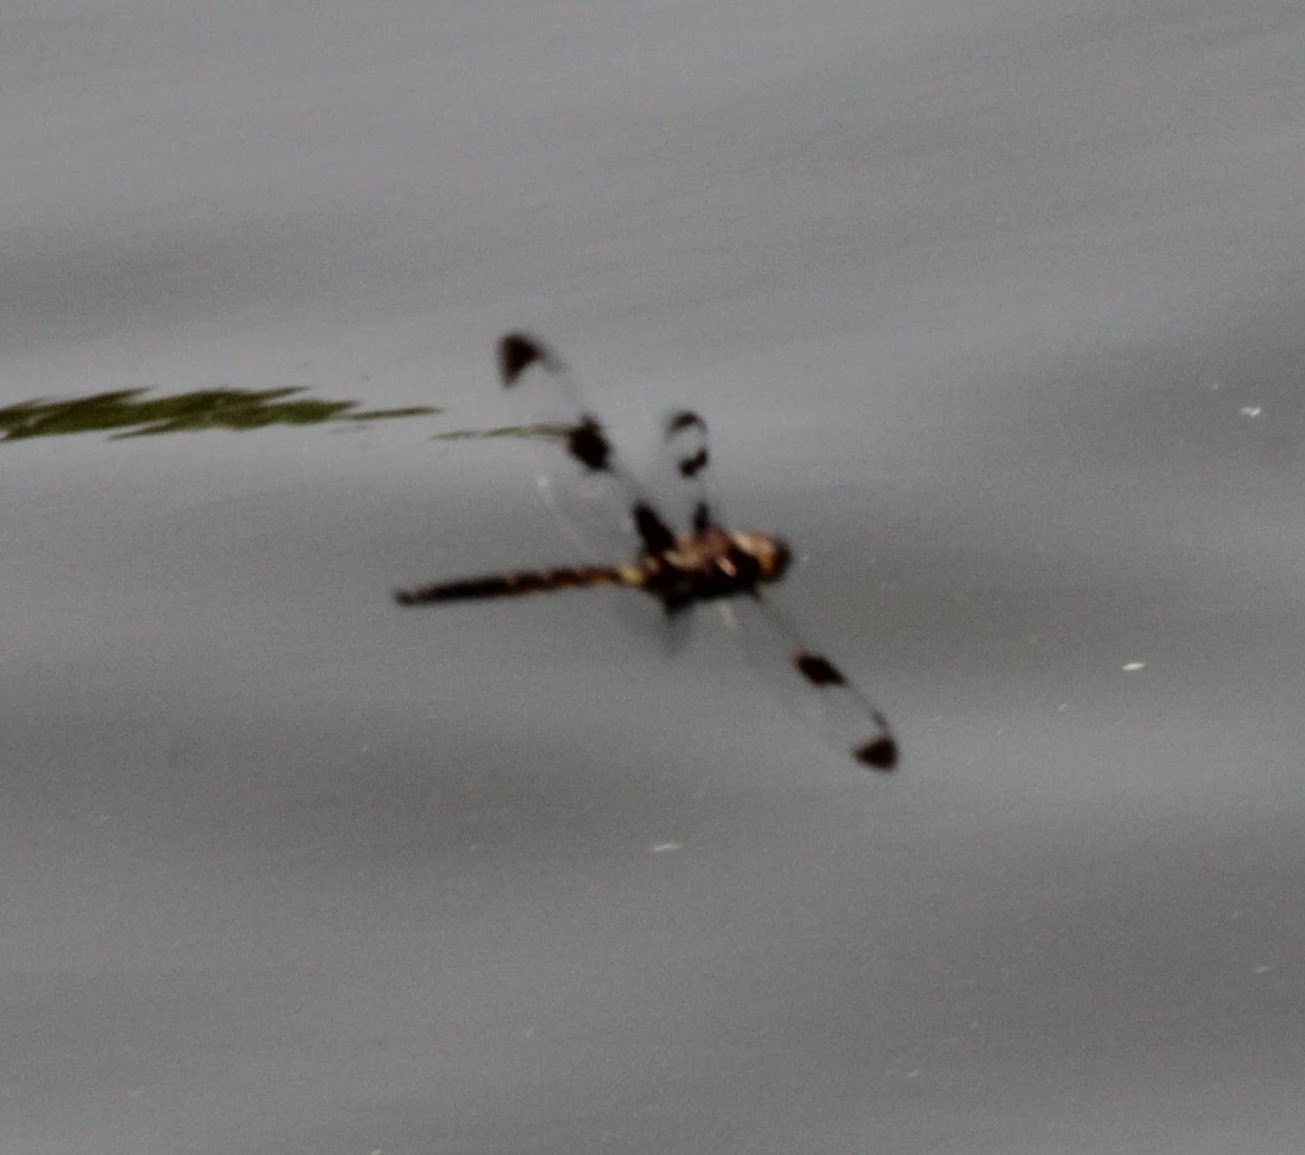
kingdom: Animalia
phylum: Arthropoda
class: Insecta
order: Odonata
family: Corduliidae
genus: Epitheca
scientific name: Epitheca princeps
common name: Prince baskettail
